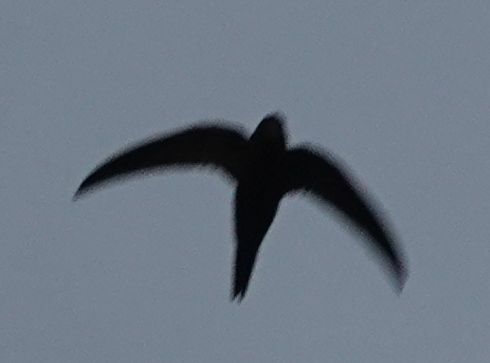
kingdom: Animalia
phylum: Chordata
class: Aves
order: Apodiformes
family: Apodidae
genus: Apus
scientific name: Apus apus
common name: Common swift
